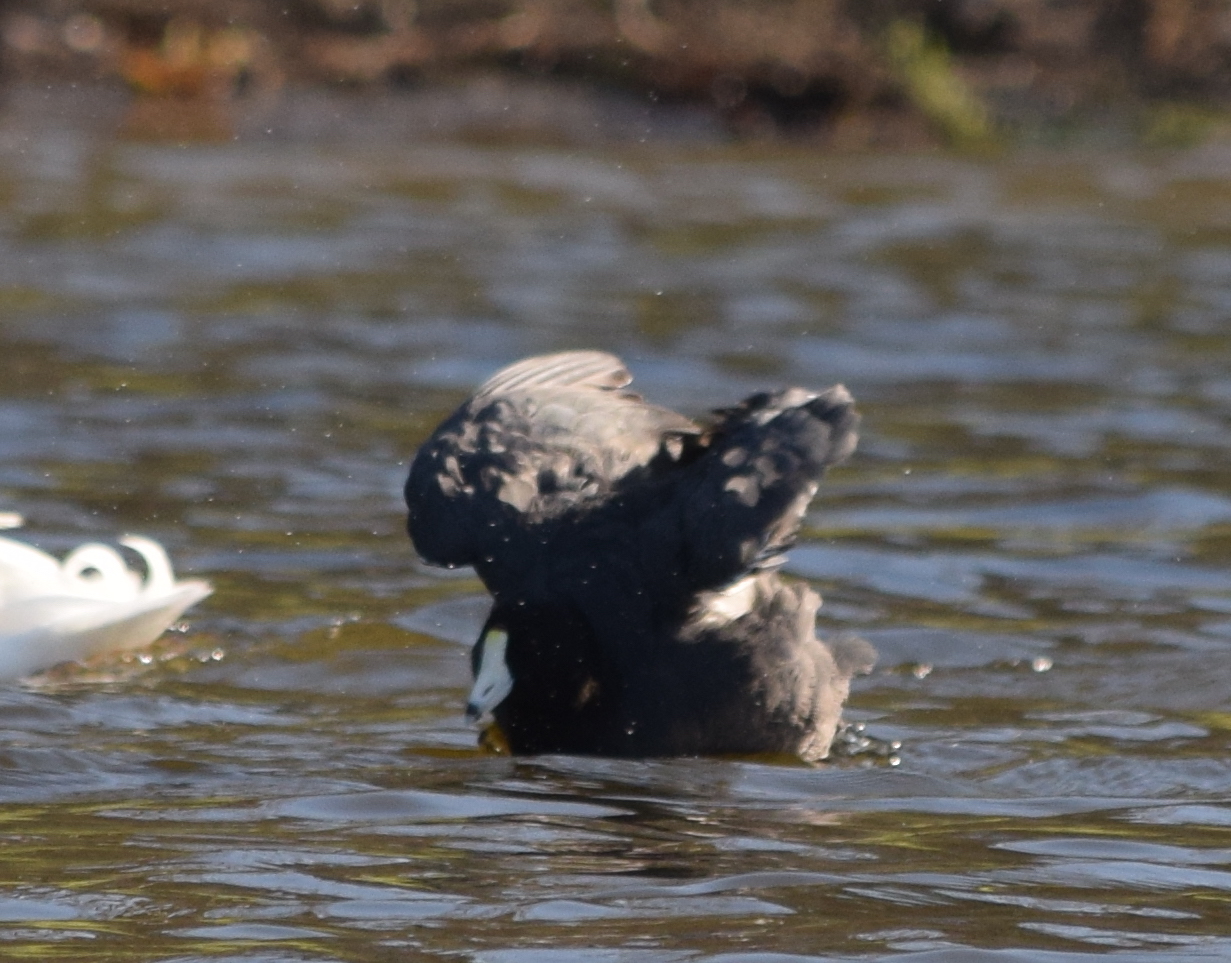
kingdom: Animalia
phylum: Chordata
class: Aves
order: Gruiformes
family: Rallidae
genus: Fulica
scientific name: Fulica americana
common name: American coot
